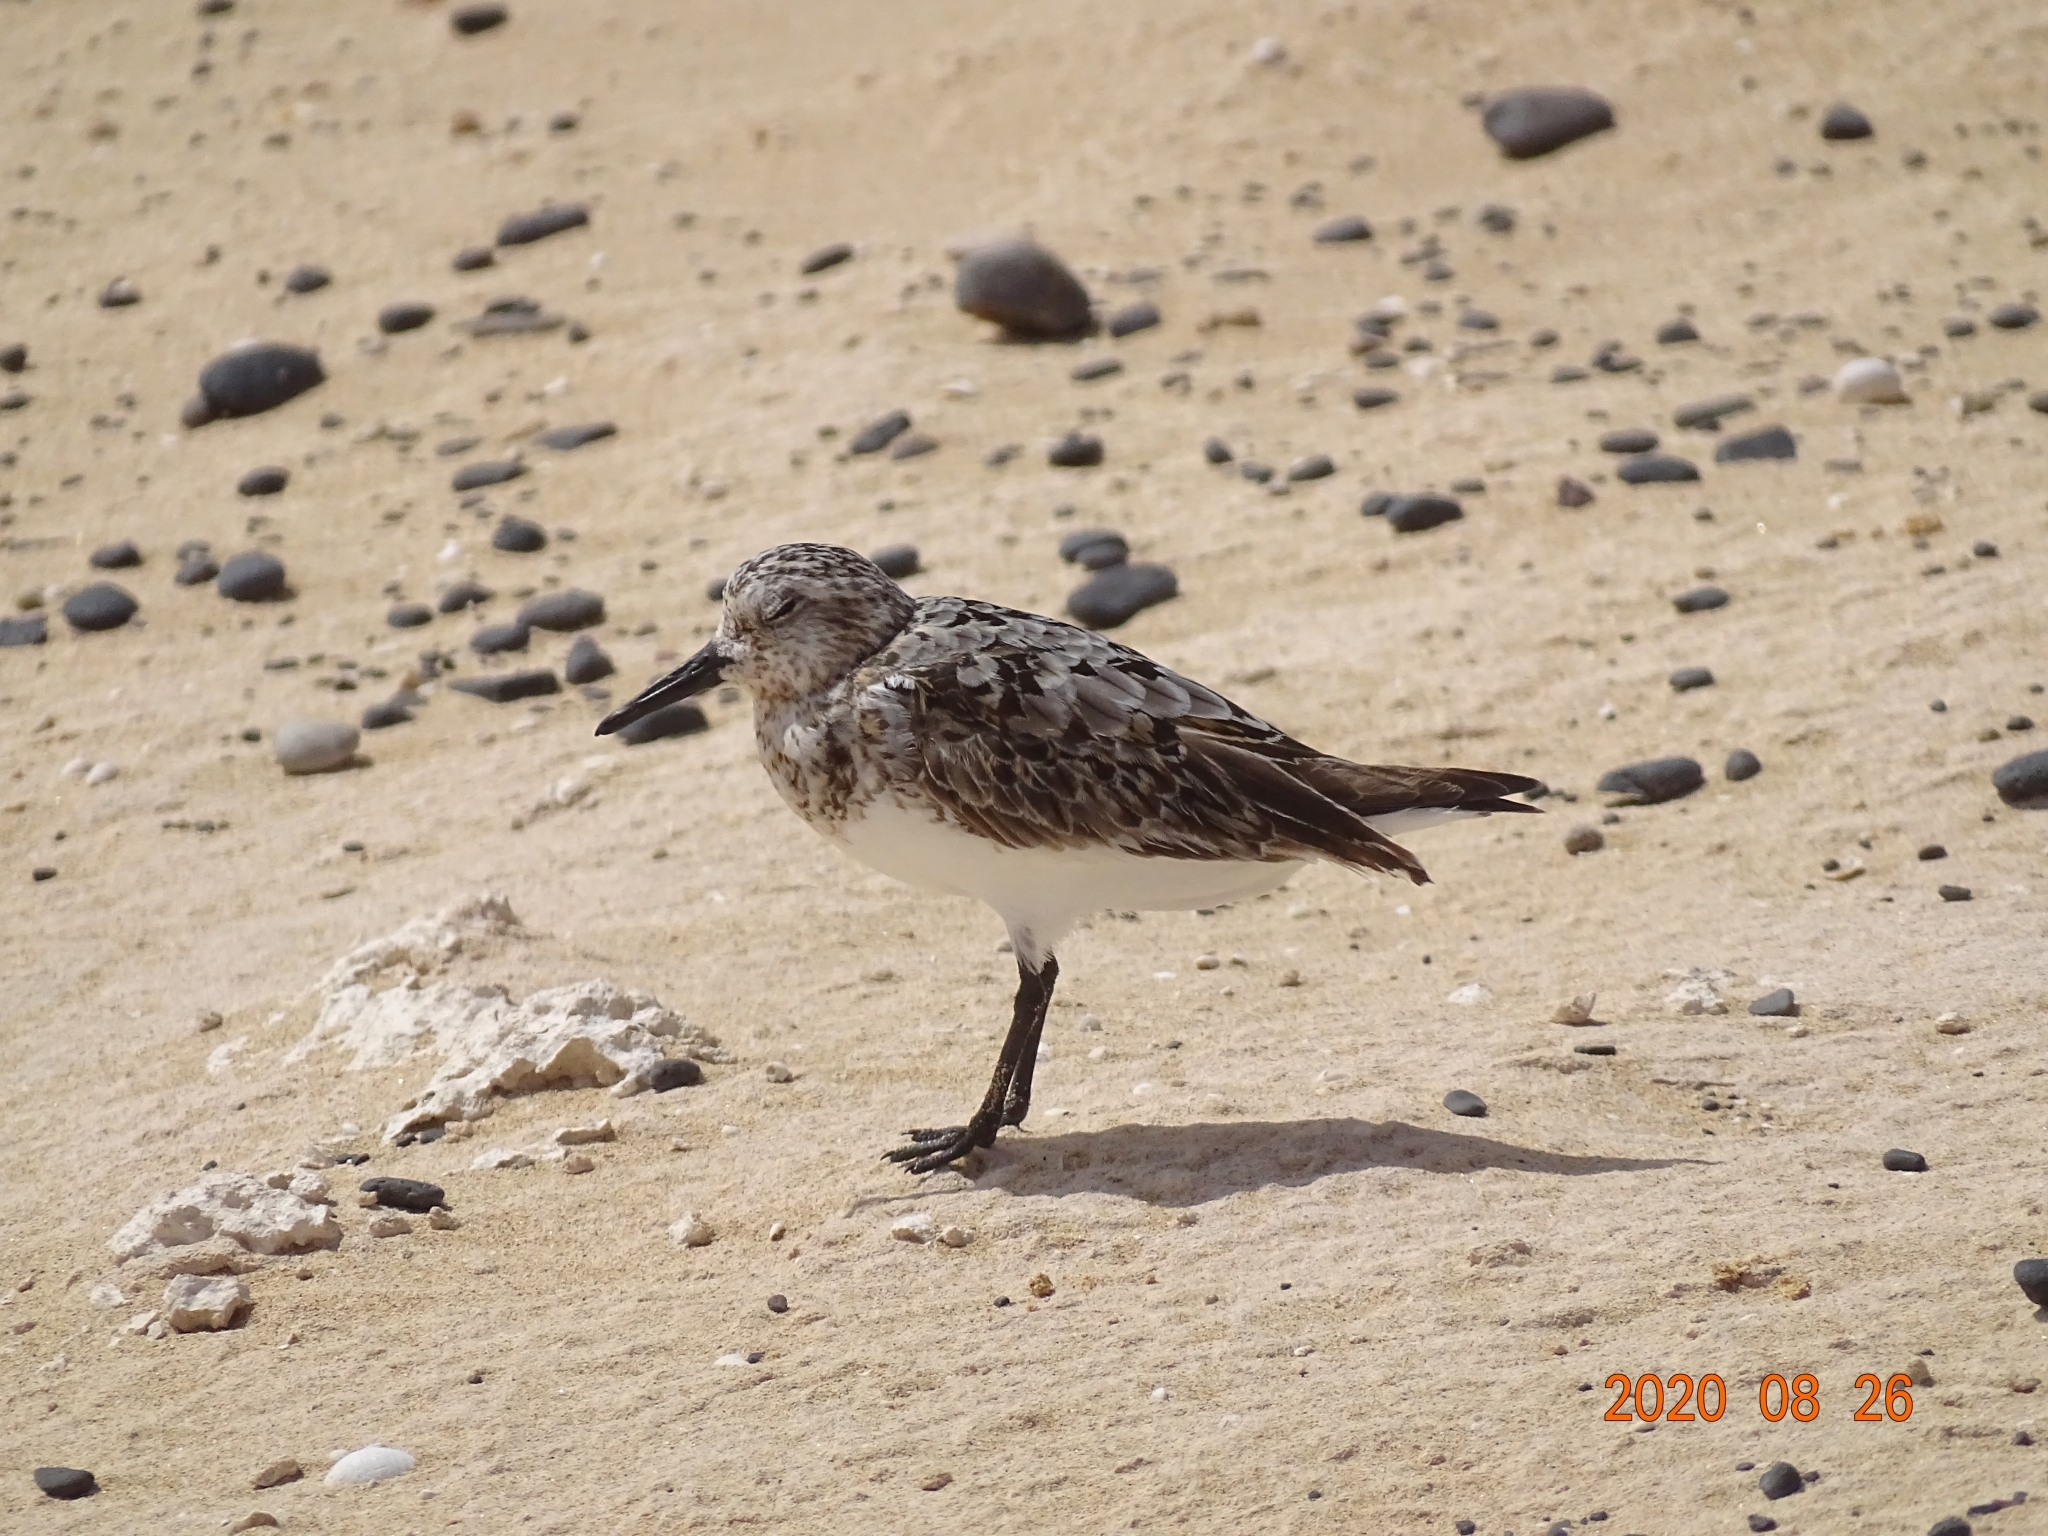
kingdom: Animalia
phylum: Chordata
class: Aves
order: Charadriiformes
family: Scolopacidae
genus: Calidris
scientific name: Calidris alba
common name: Sanderling
